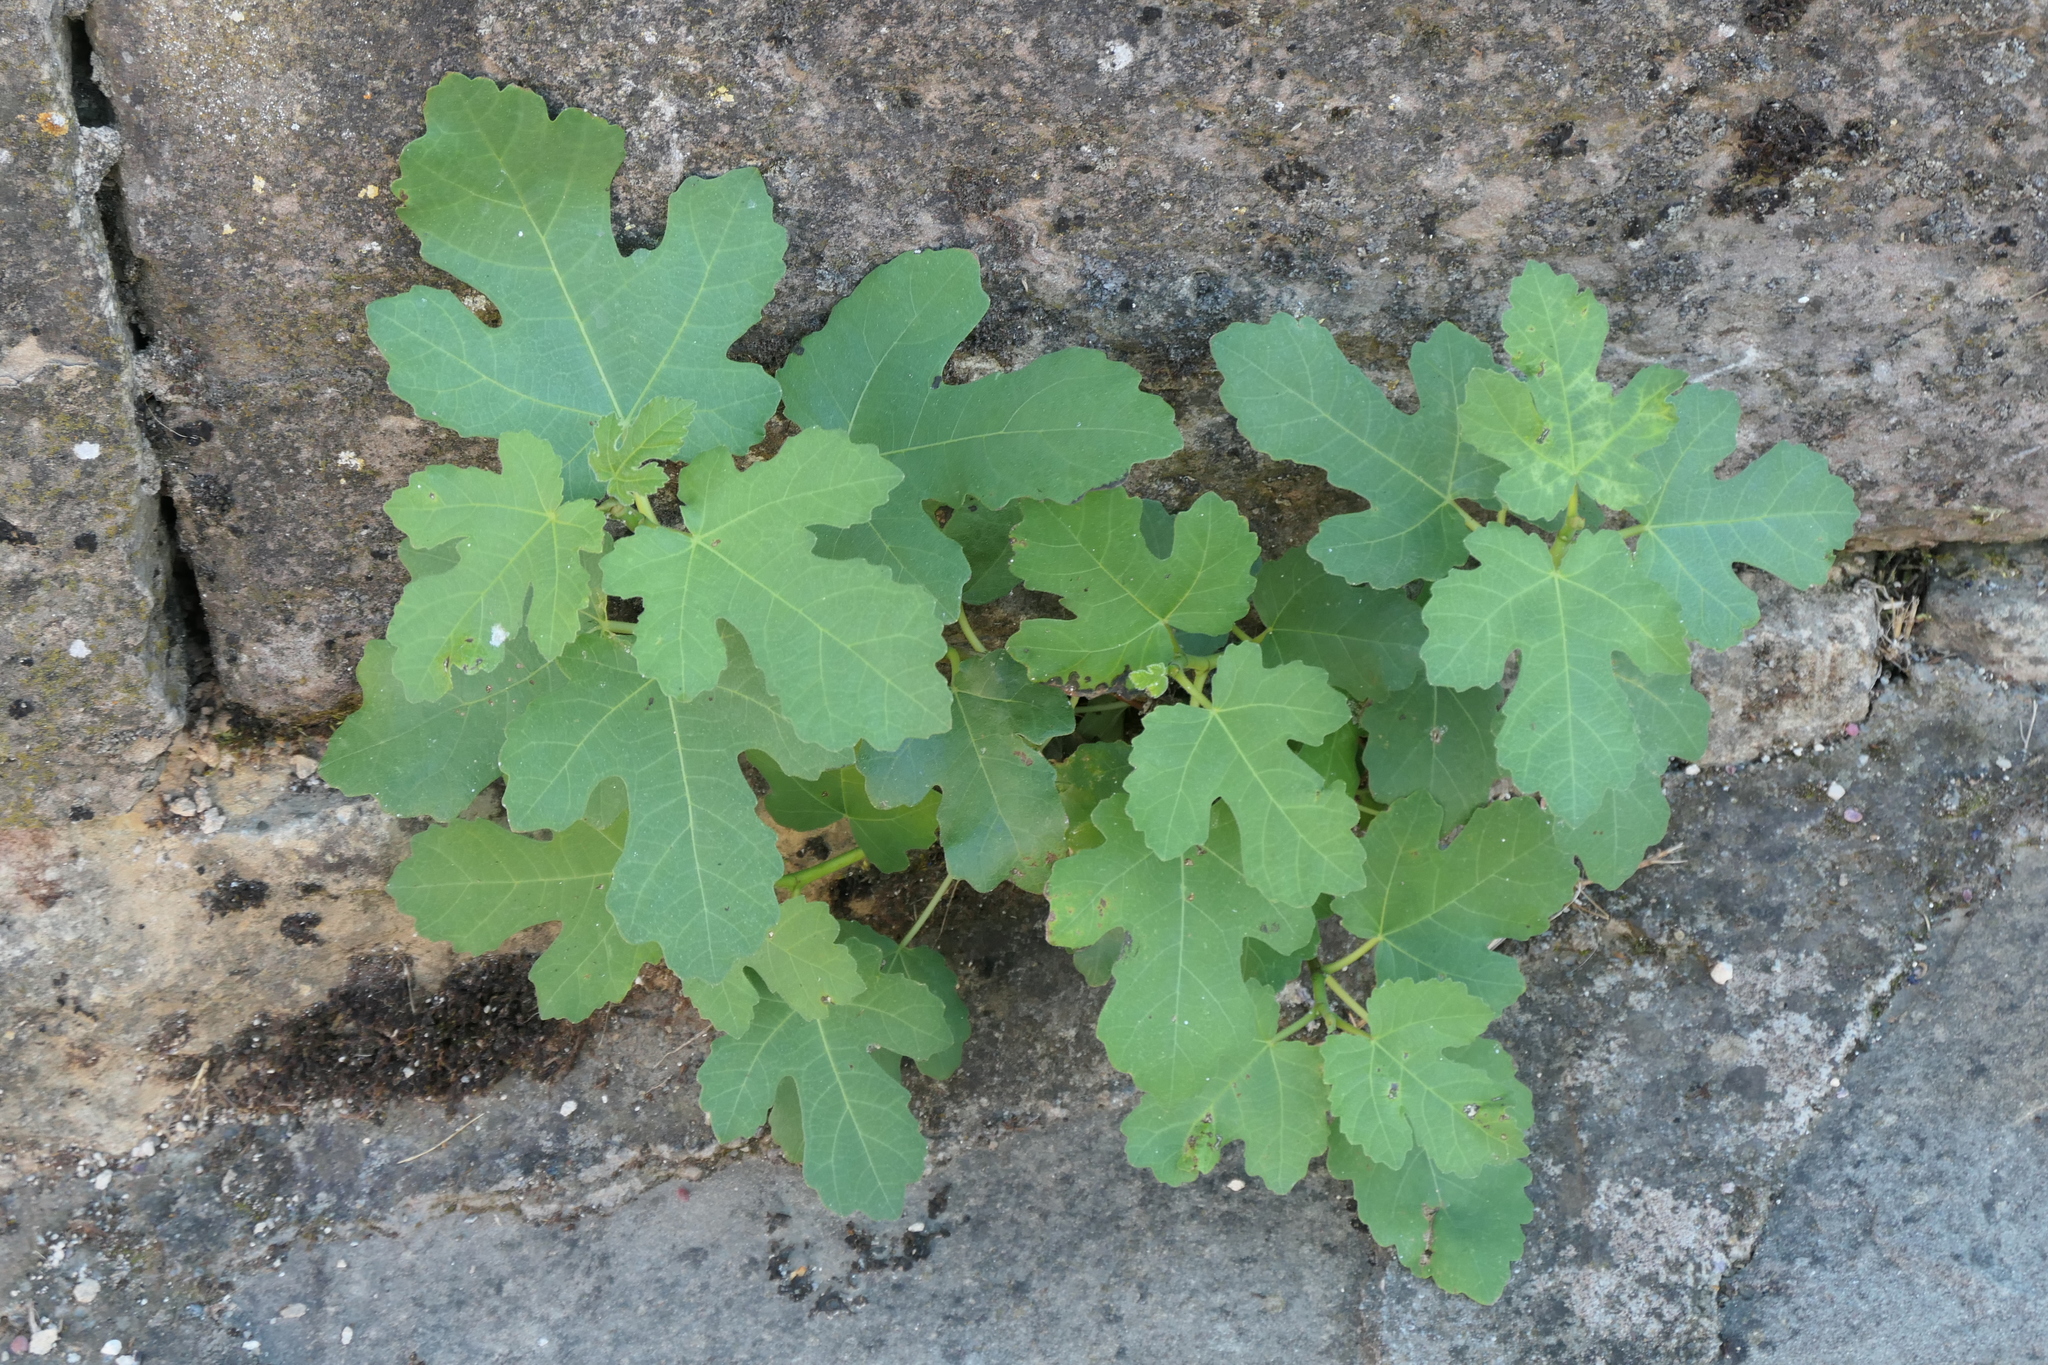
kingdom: Plantae
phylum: Tracheophyta
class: Magnoliopsida
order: Rosales
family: Moraceae
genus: Ficus
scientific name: Ficus carica
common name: Fig
